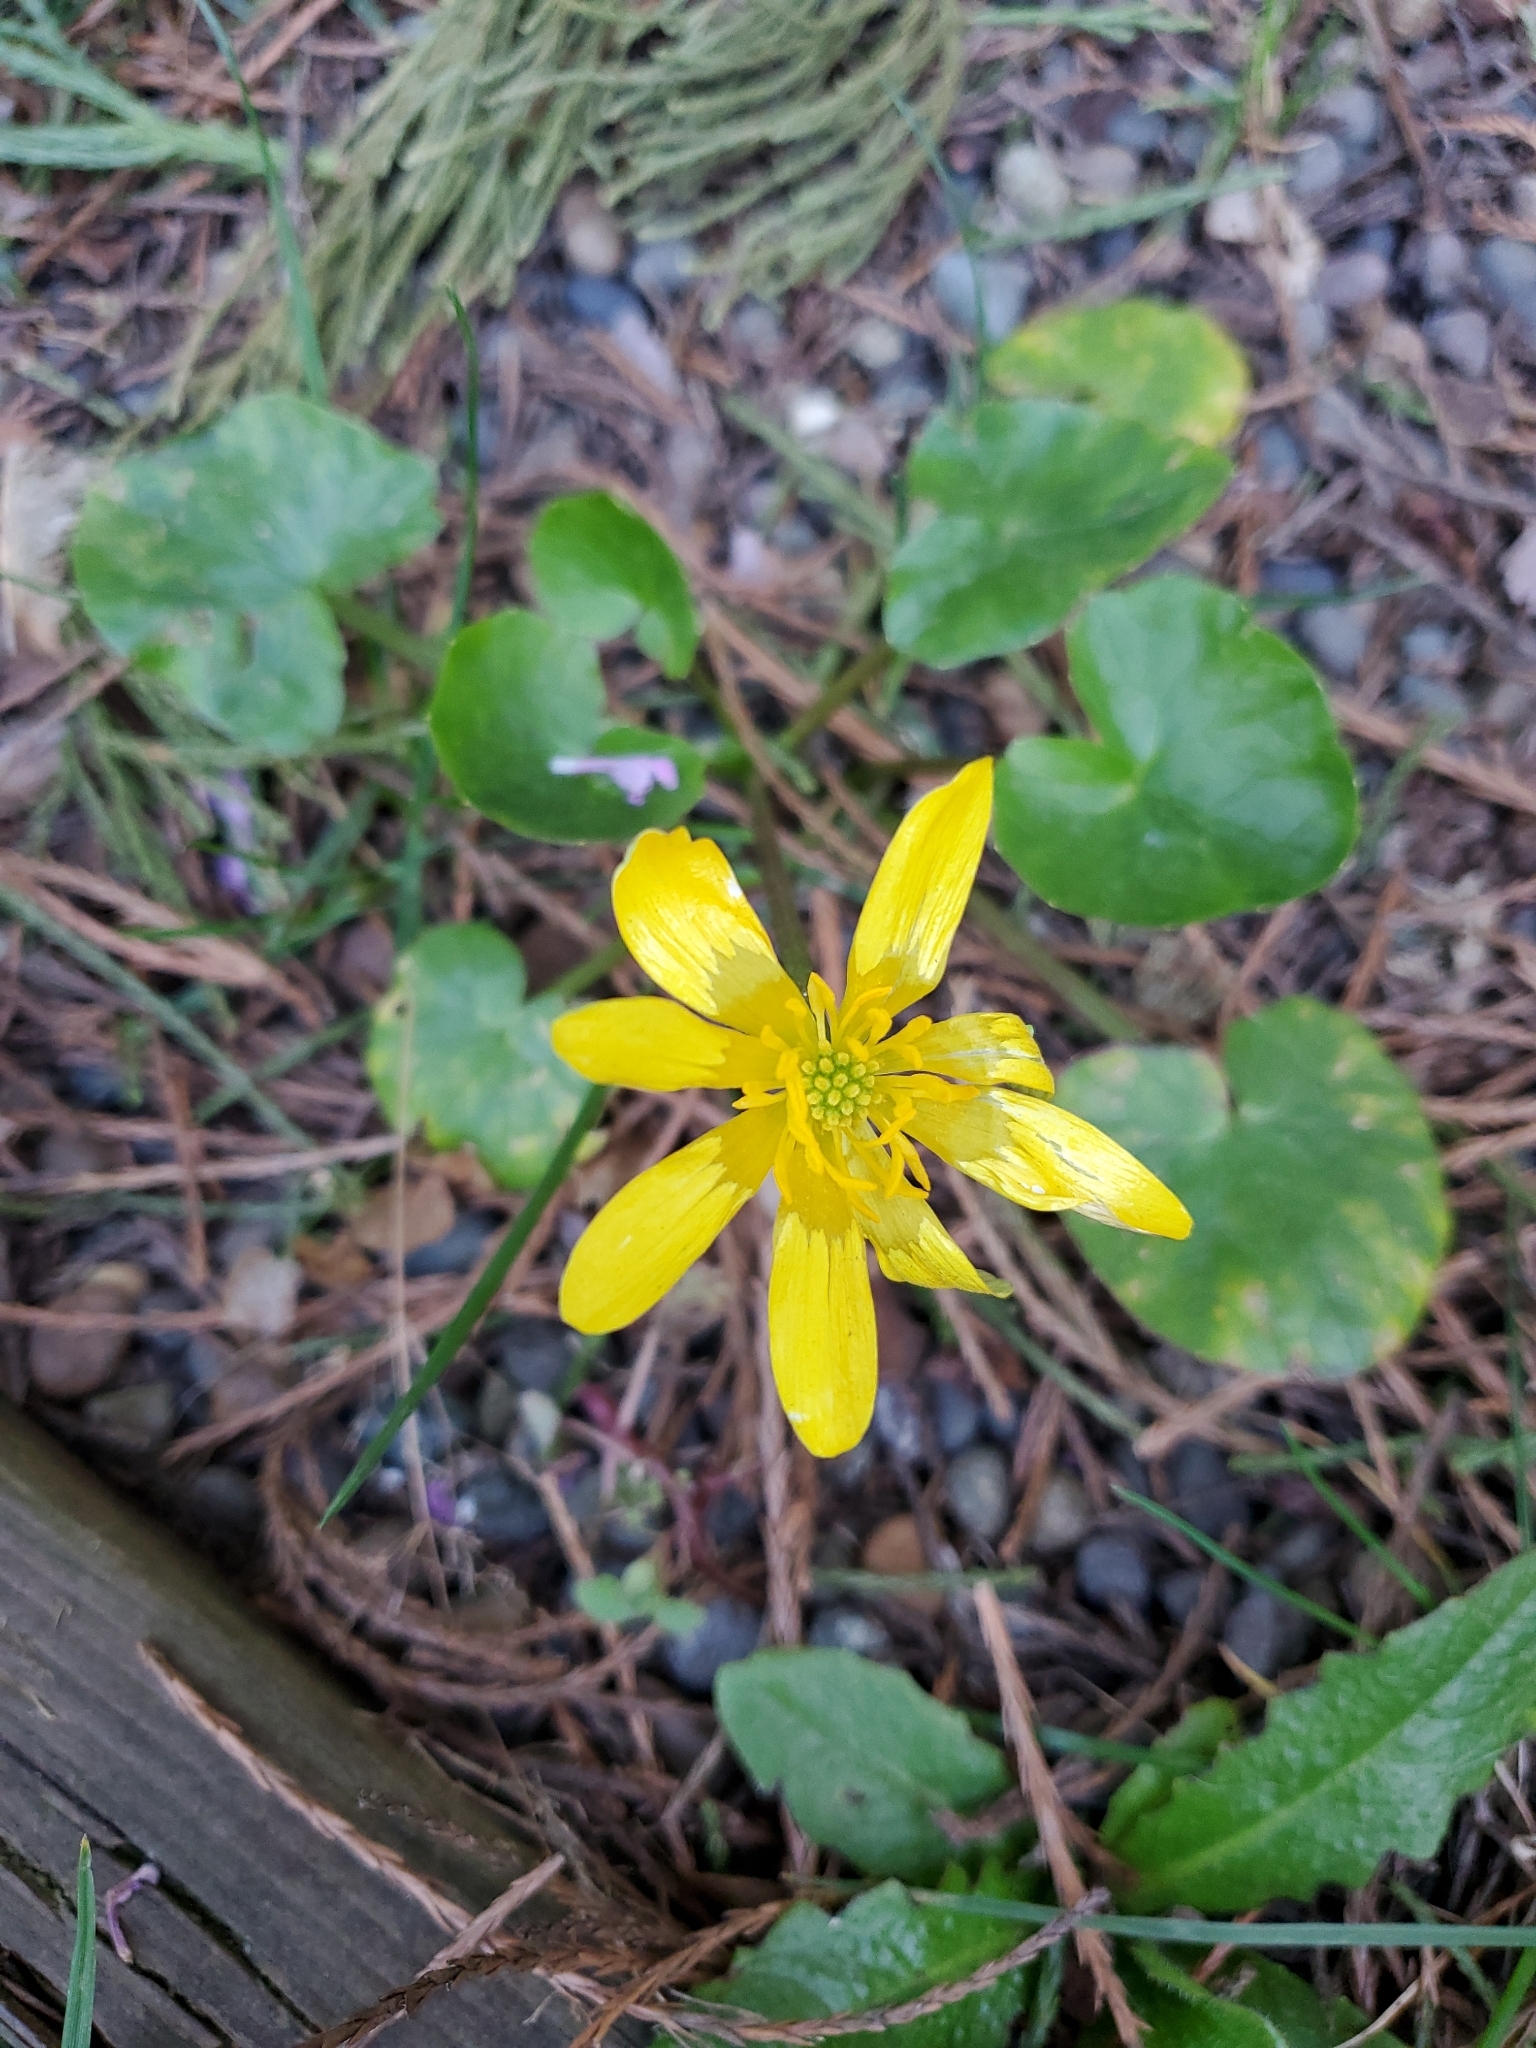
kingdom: Plantae
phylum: Tracheophyta
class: Magnoliopsida
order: Ranunculales
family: Ranunculaceae
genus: Ficaria
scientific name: Ficaria verna
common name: Lesser celandine
